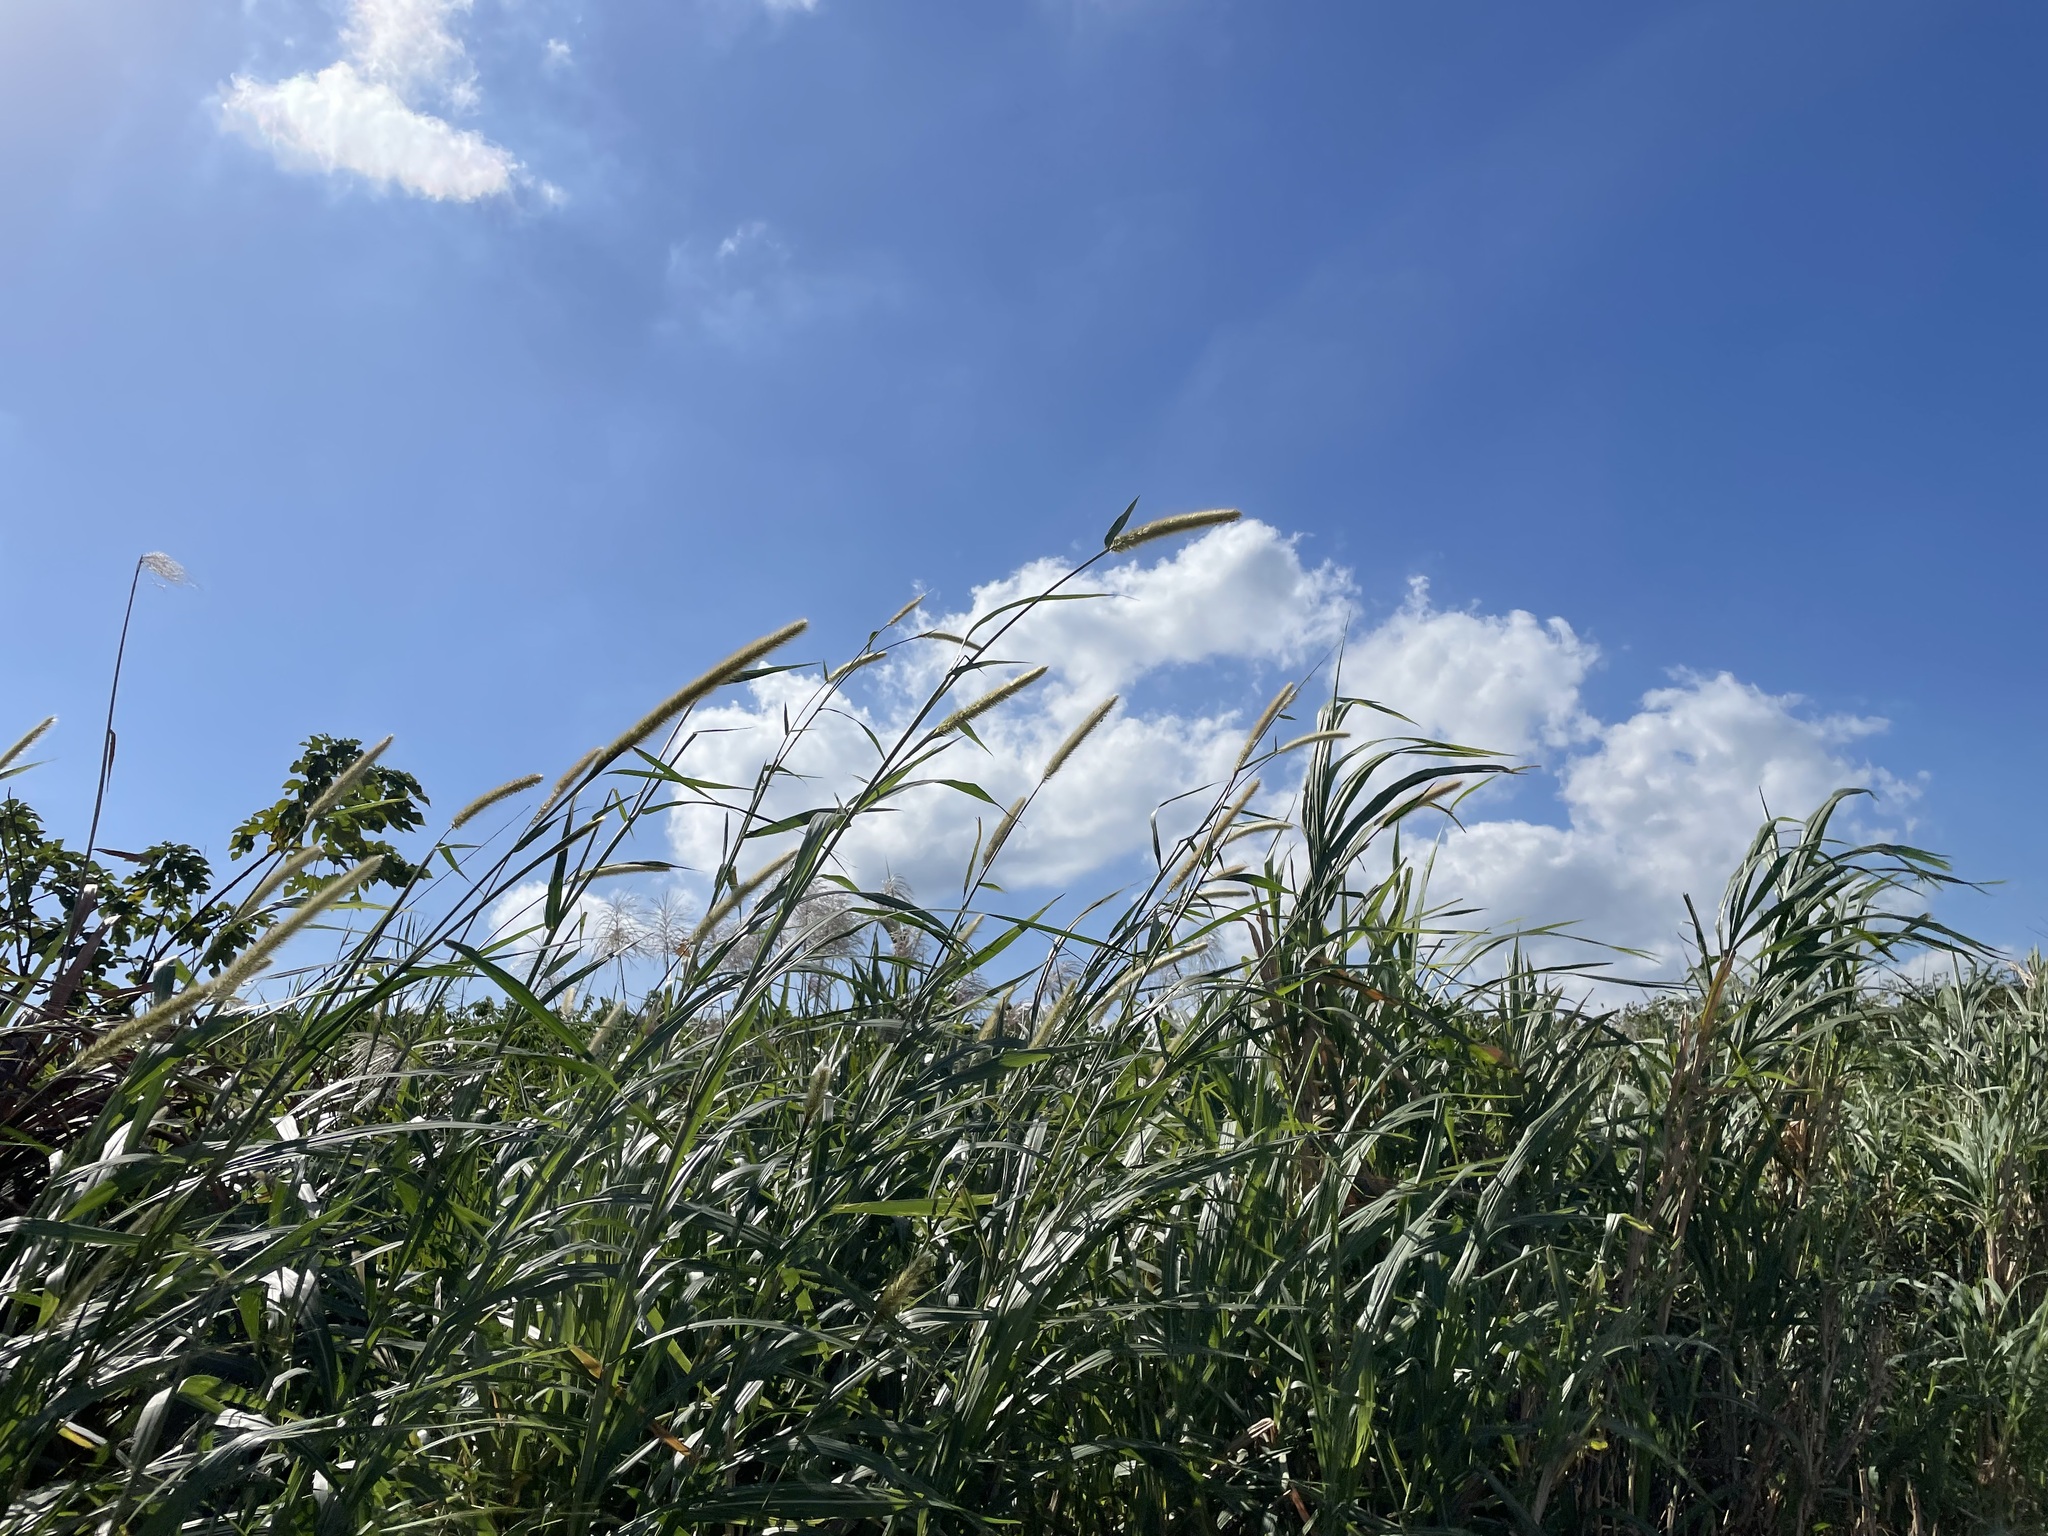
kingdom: Plantae
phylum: Tracheophyta
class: Liliopsida
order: Poales
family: Poaceae
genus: Cenchrus
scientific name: Cenchrus purpureus
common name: Elephant grass
